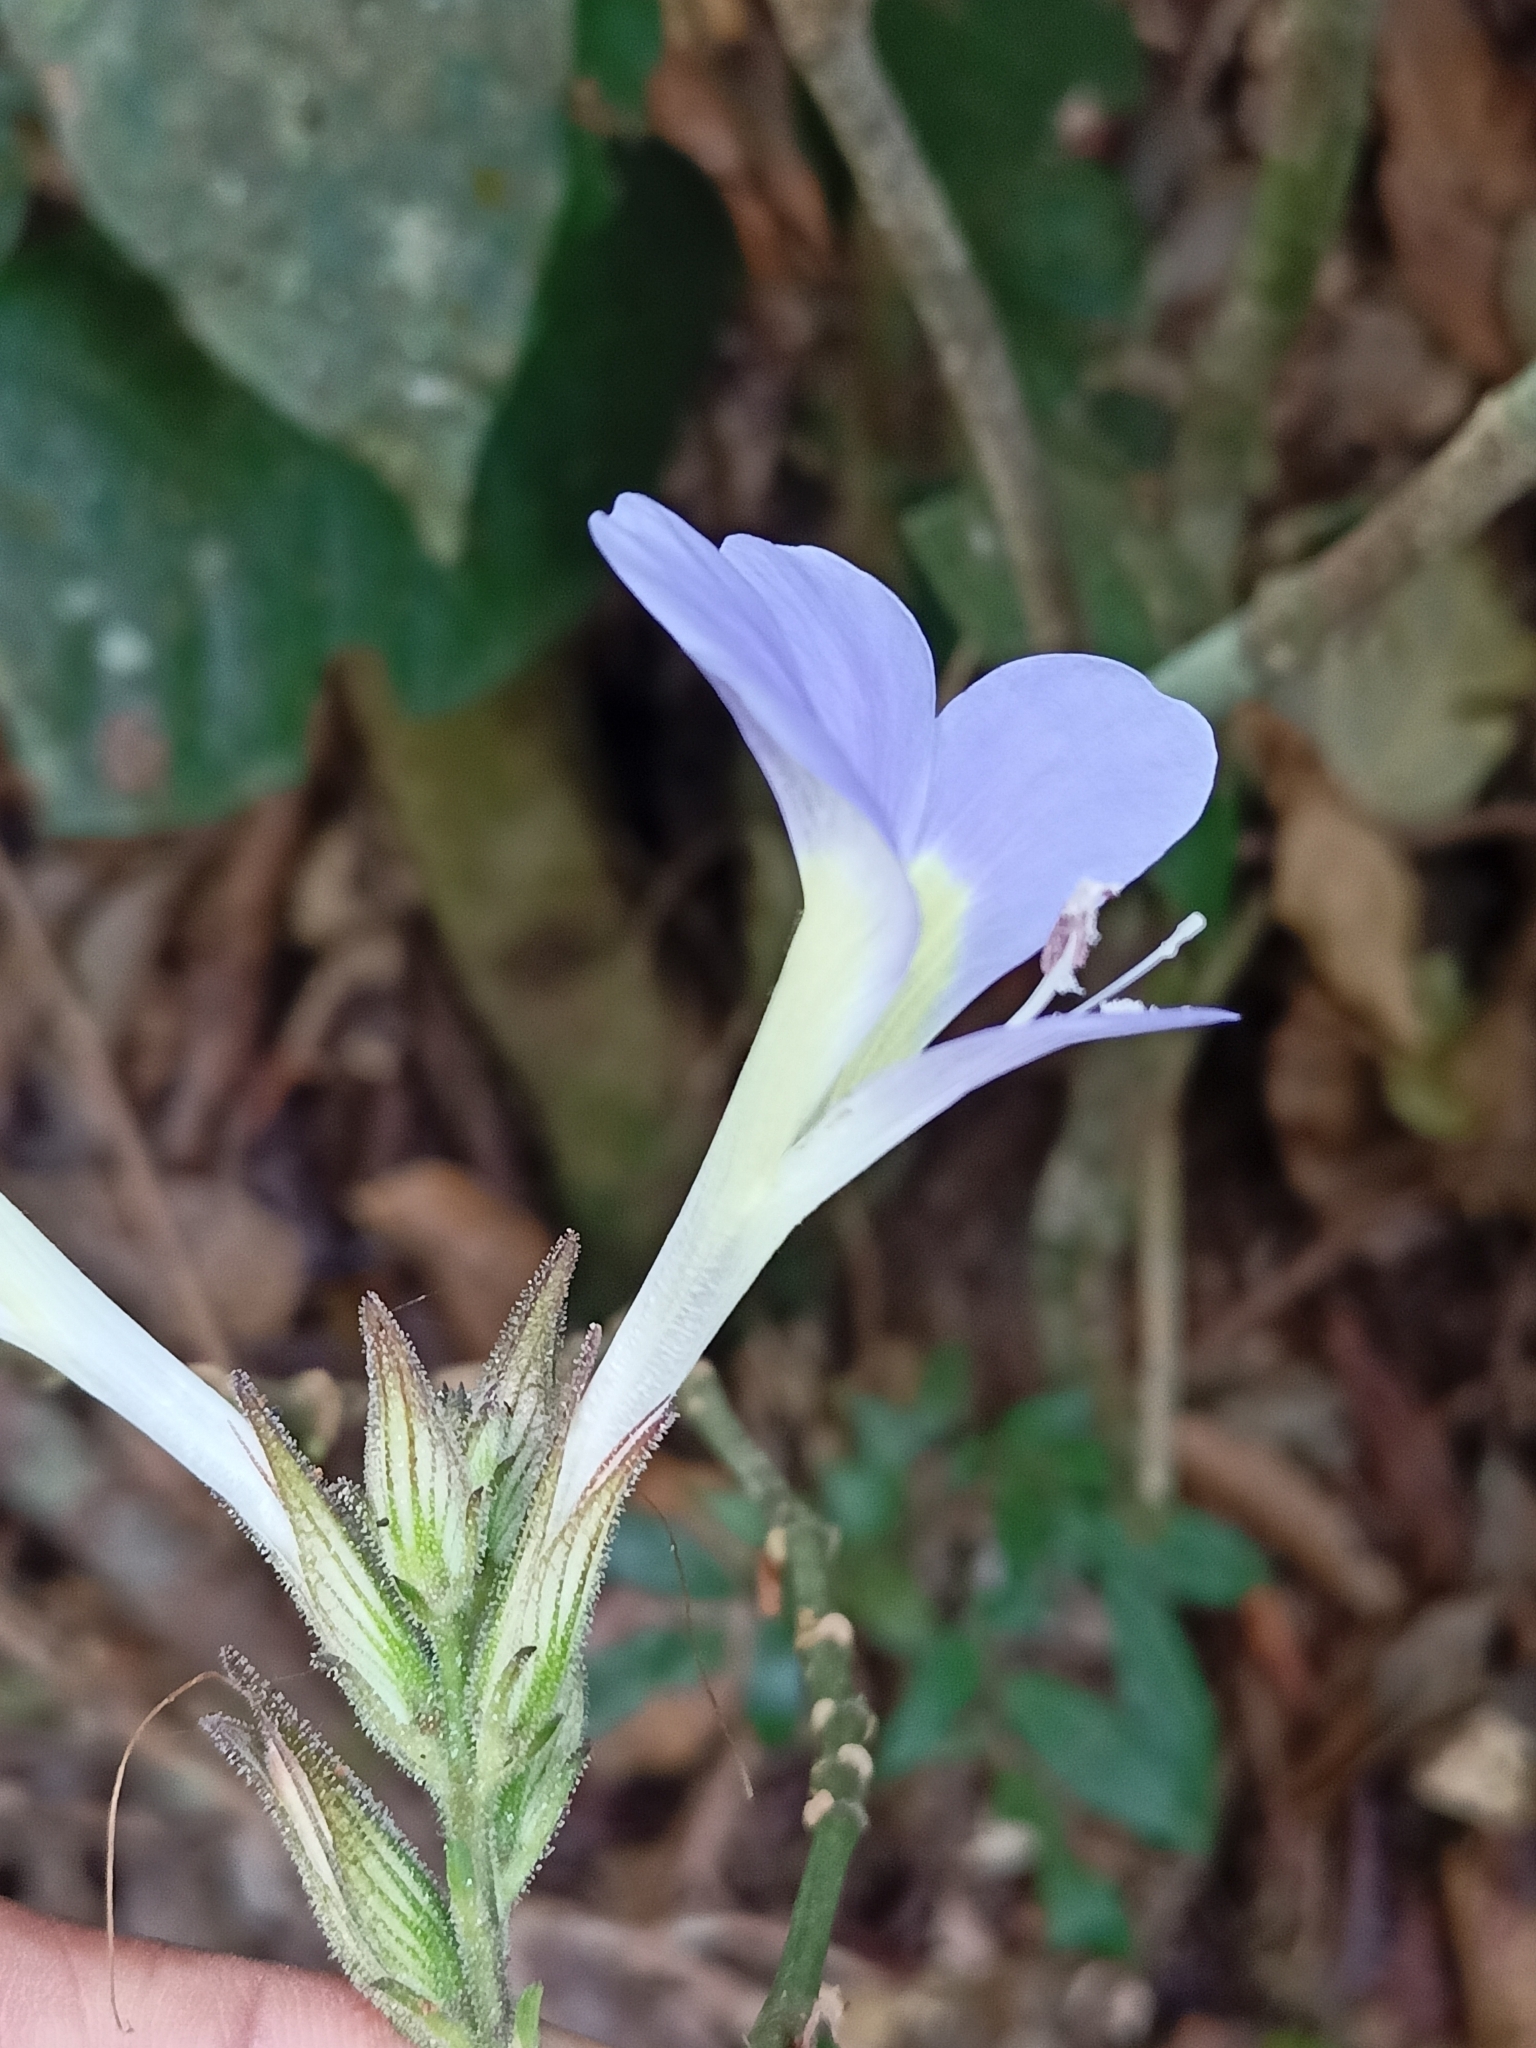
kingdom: Plantae
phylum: Tracheophyta
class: Magnoliopsida
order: Lamiales
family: Acanthaceae
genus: Barleria
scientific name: Barleria courtallica
